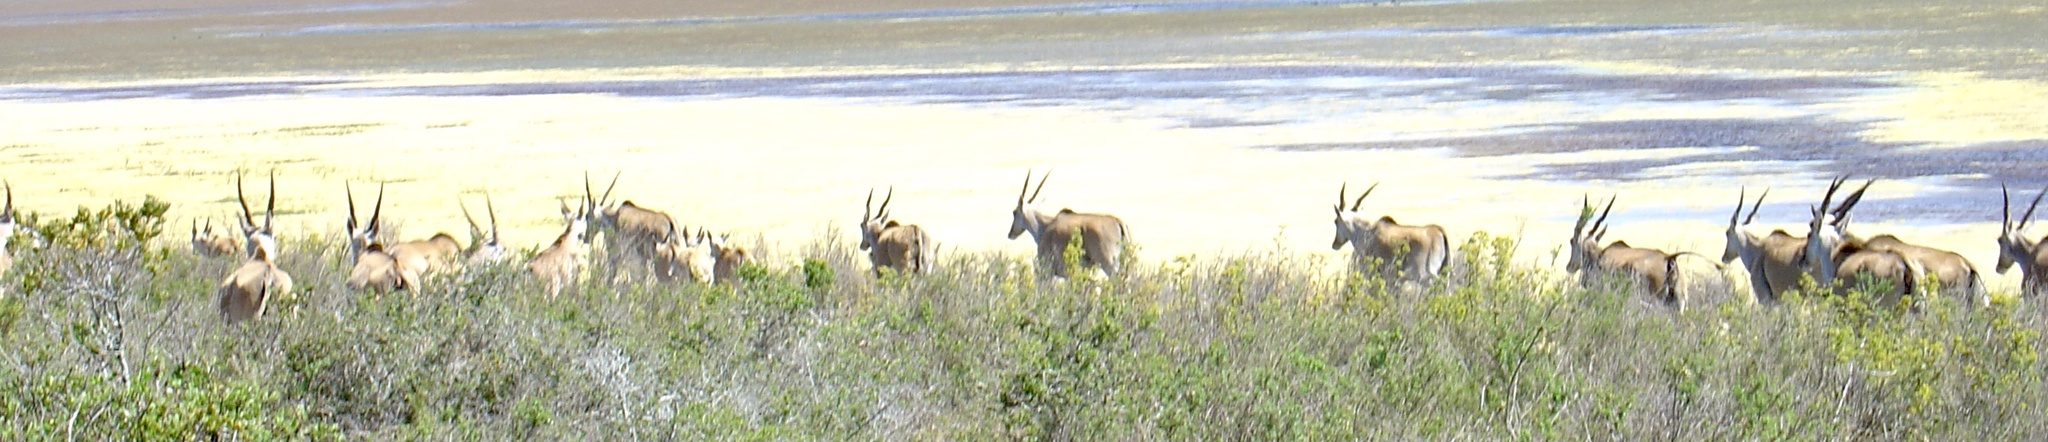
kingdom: Animalia
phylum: Chordata
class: Mammalia
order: Artiodactyla
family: Bovidae
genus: Taurotragus
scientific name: Taurotragus oryx
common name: Common eland
